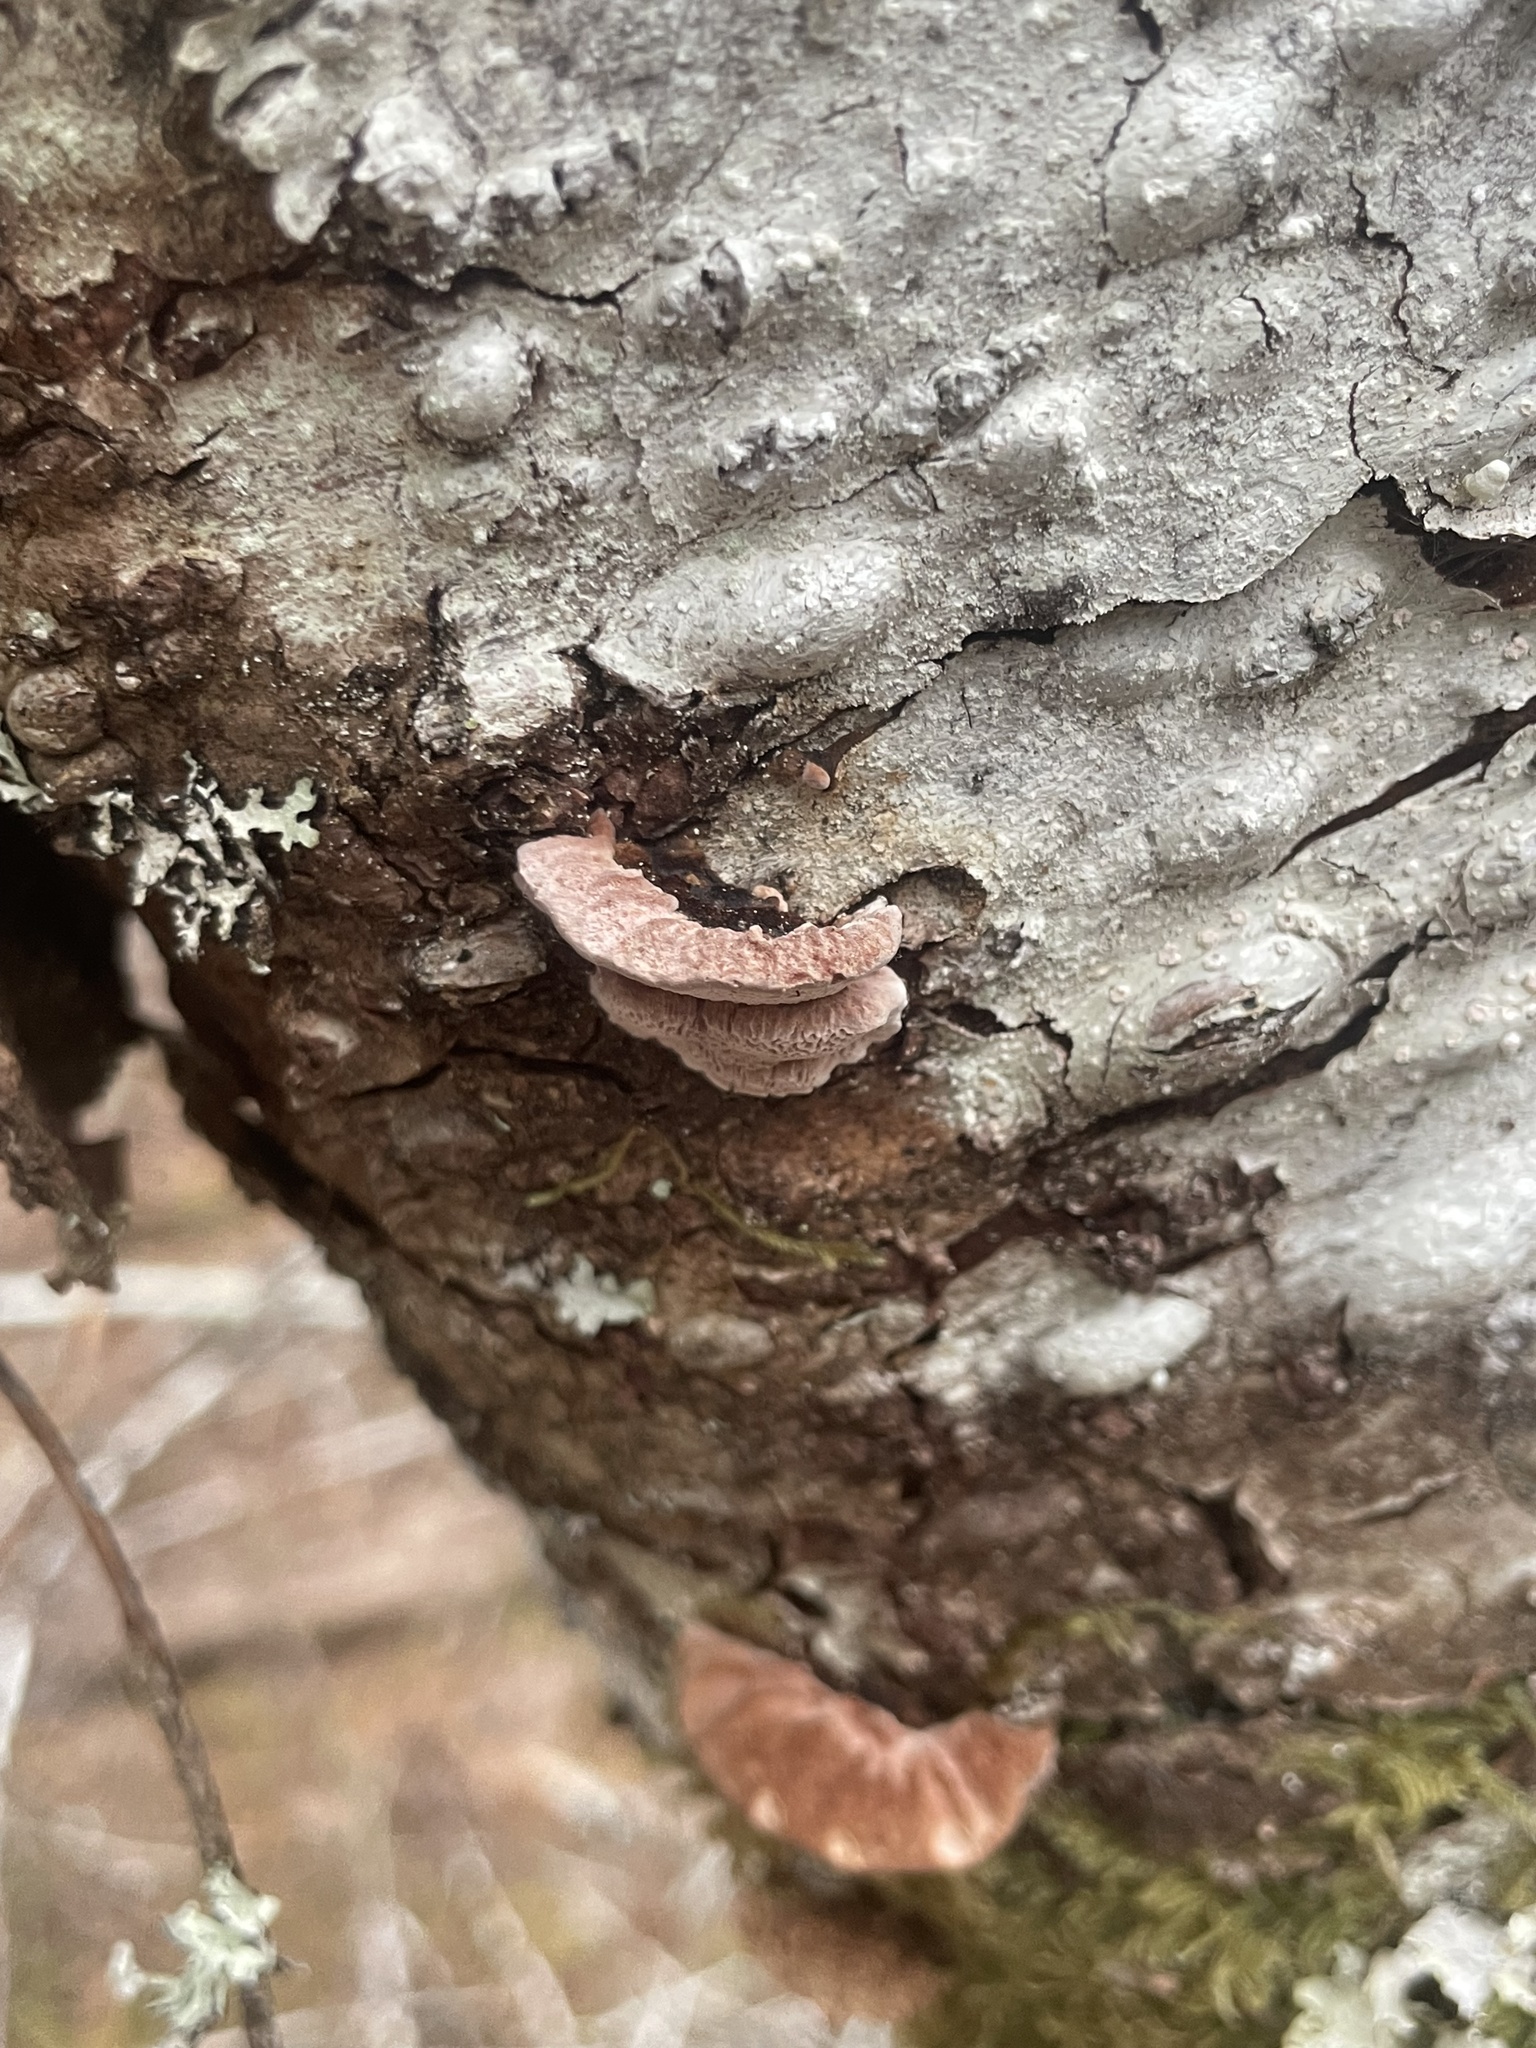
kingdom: Fungi
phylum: Basidiomycota
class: Agaricomycetes
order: Polyporales
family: Fomitopsidaceae
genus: Rhodofomes
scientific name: Rhodofomes cajanderi
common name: Rosy conk
